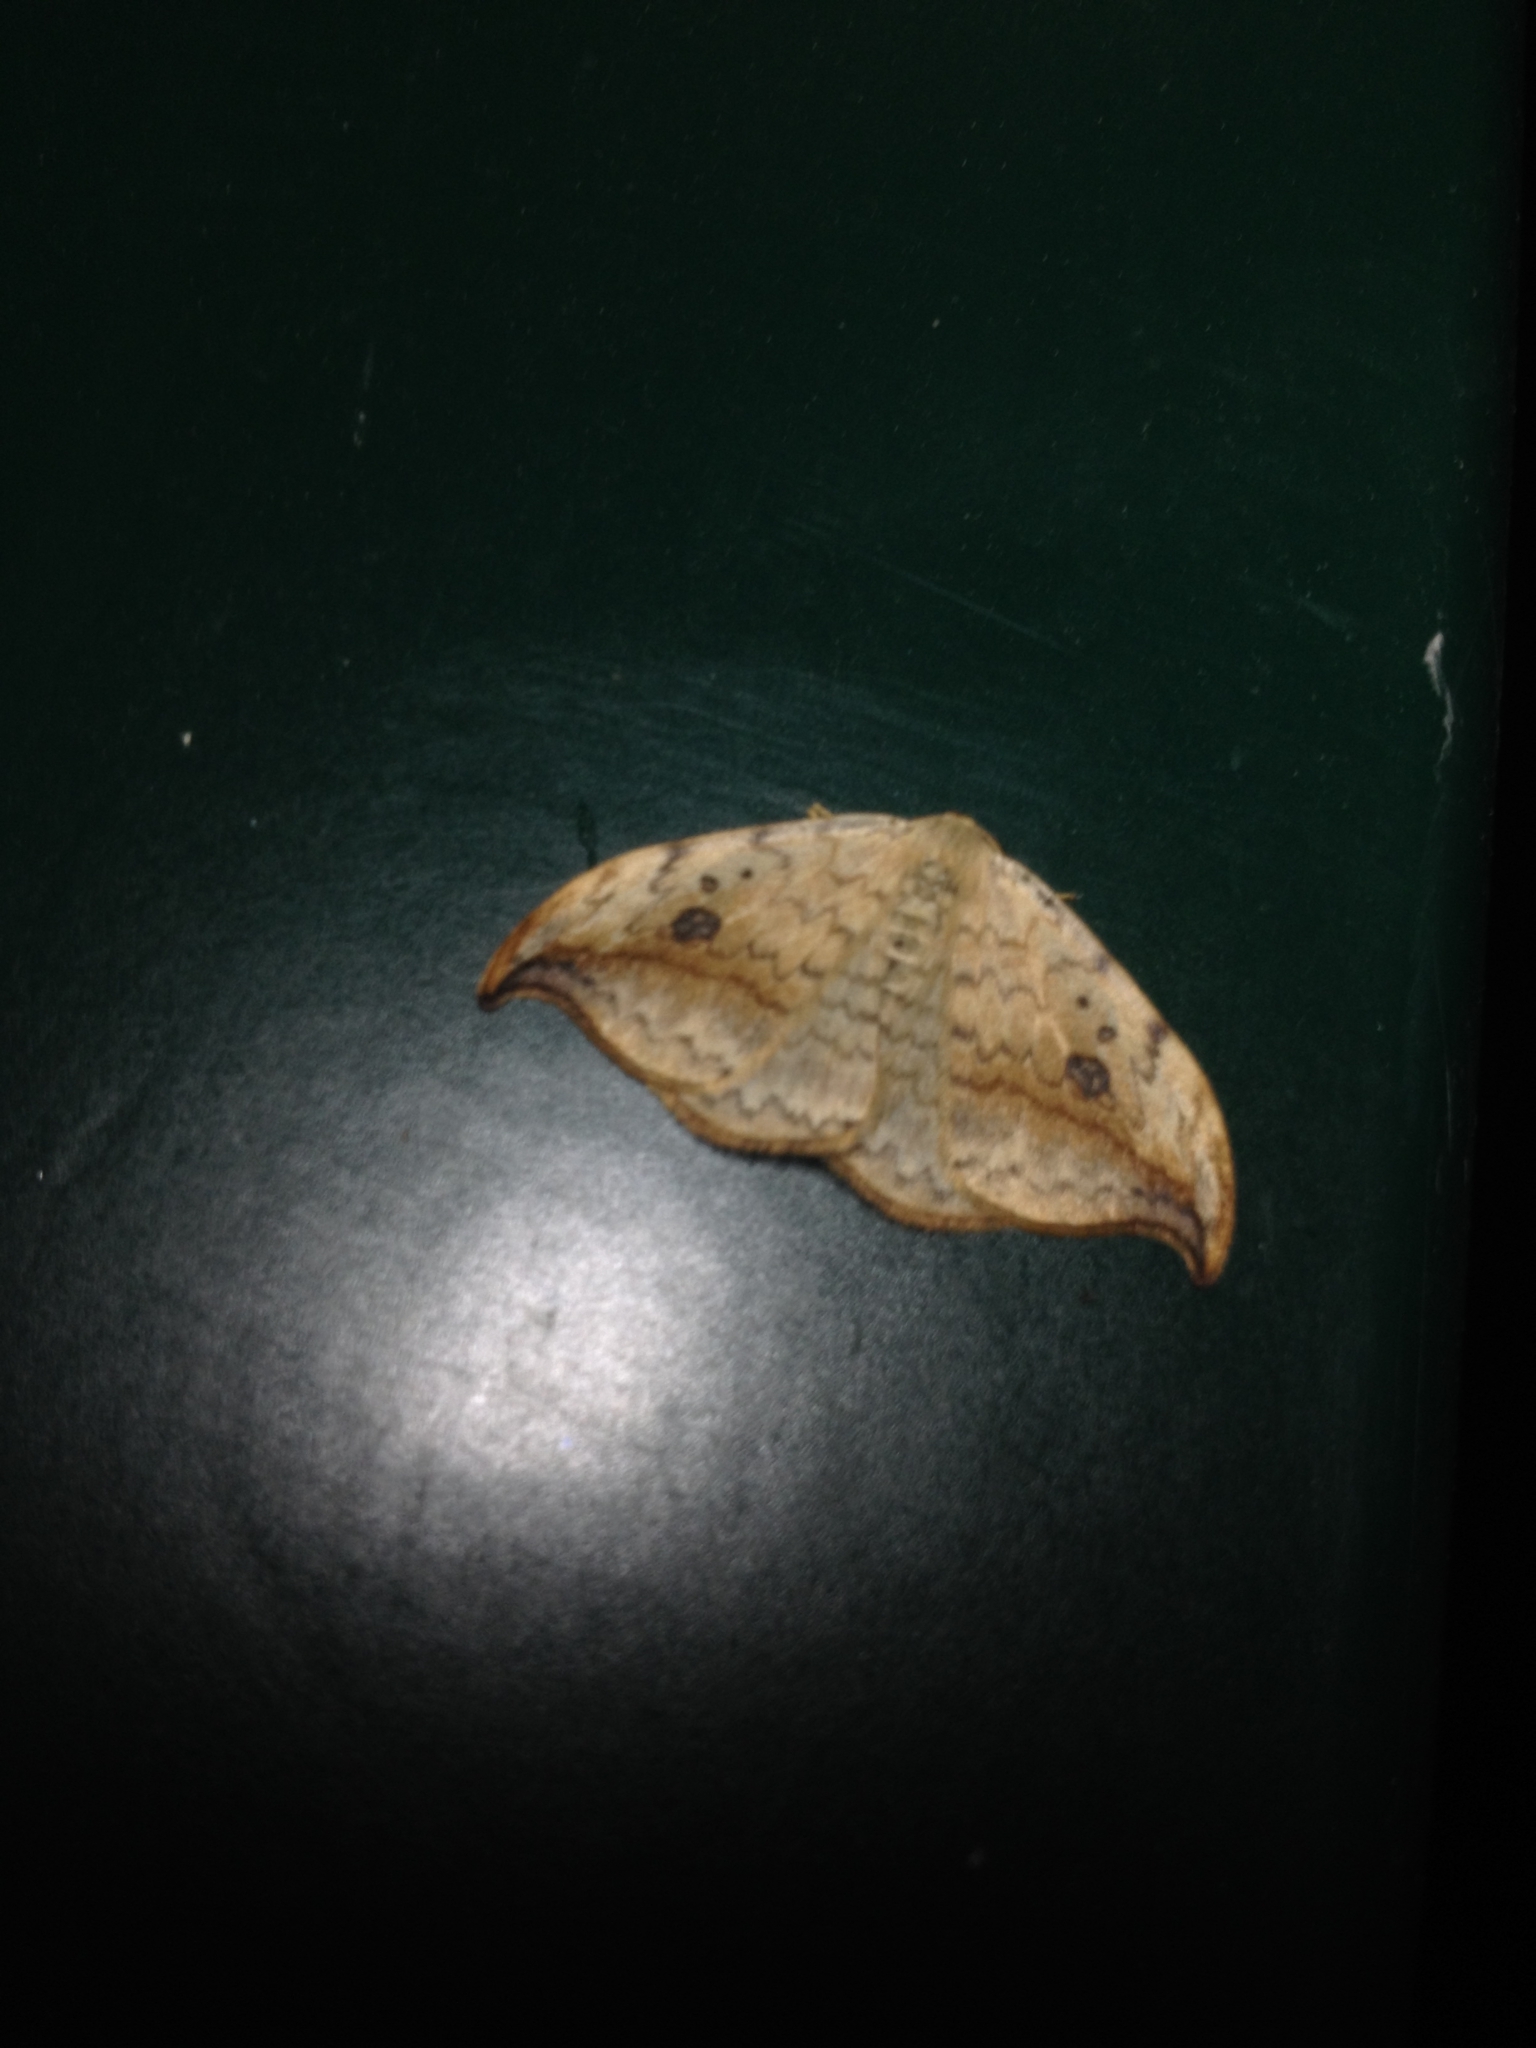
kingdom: Animalia
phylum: Arthropoda
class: Insecta
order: Lepidoptera
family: Drepanidae
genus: Drepana
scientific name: Drepana falcataria
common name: Pebble hook-tip
